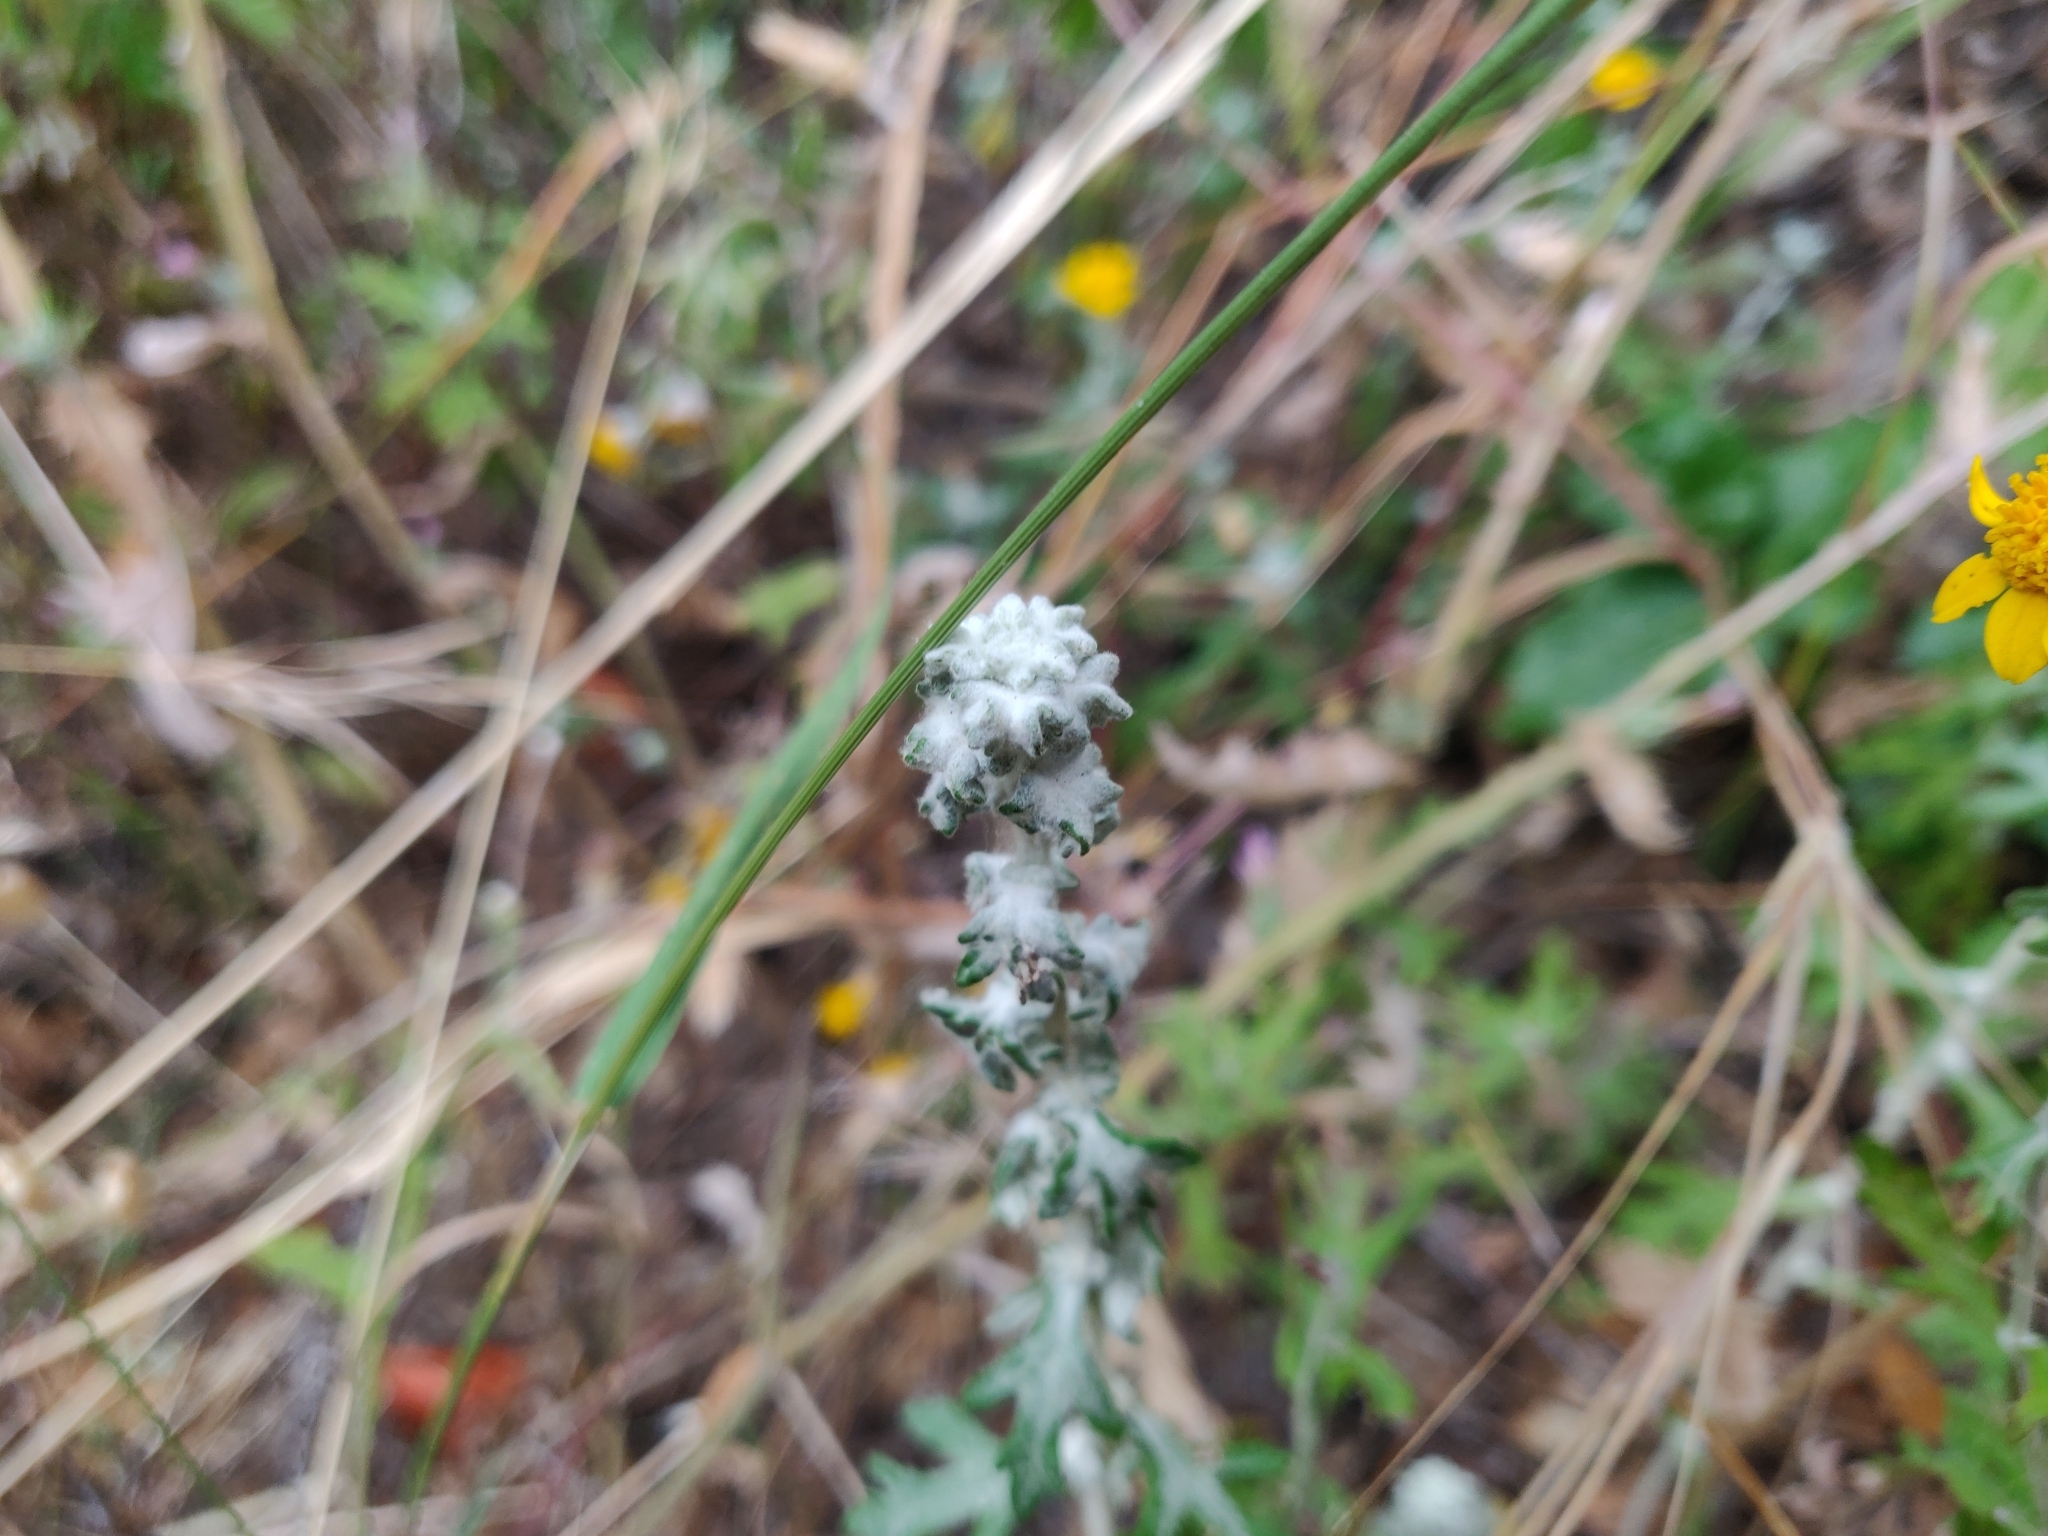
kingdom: Plantae
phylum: Tracheophyta
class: Magnoliopsida
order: Asterales
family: Asteraceae
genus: Eriophyllum
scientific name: Eriophyllum latilobum
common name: San mateo woolly-sunflower
